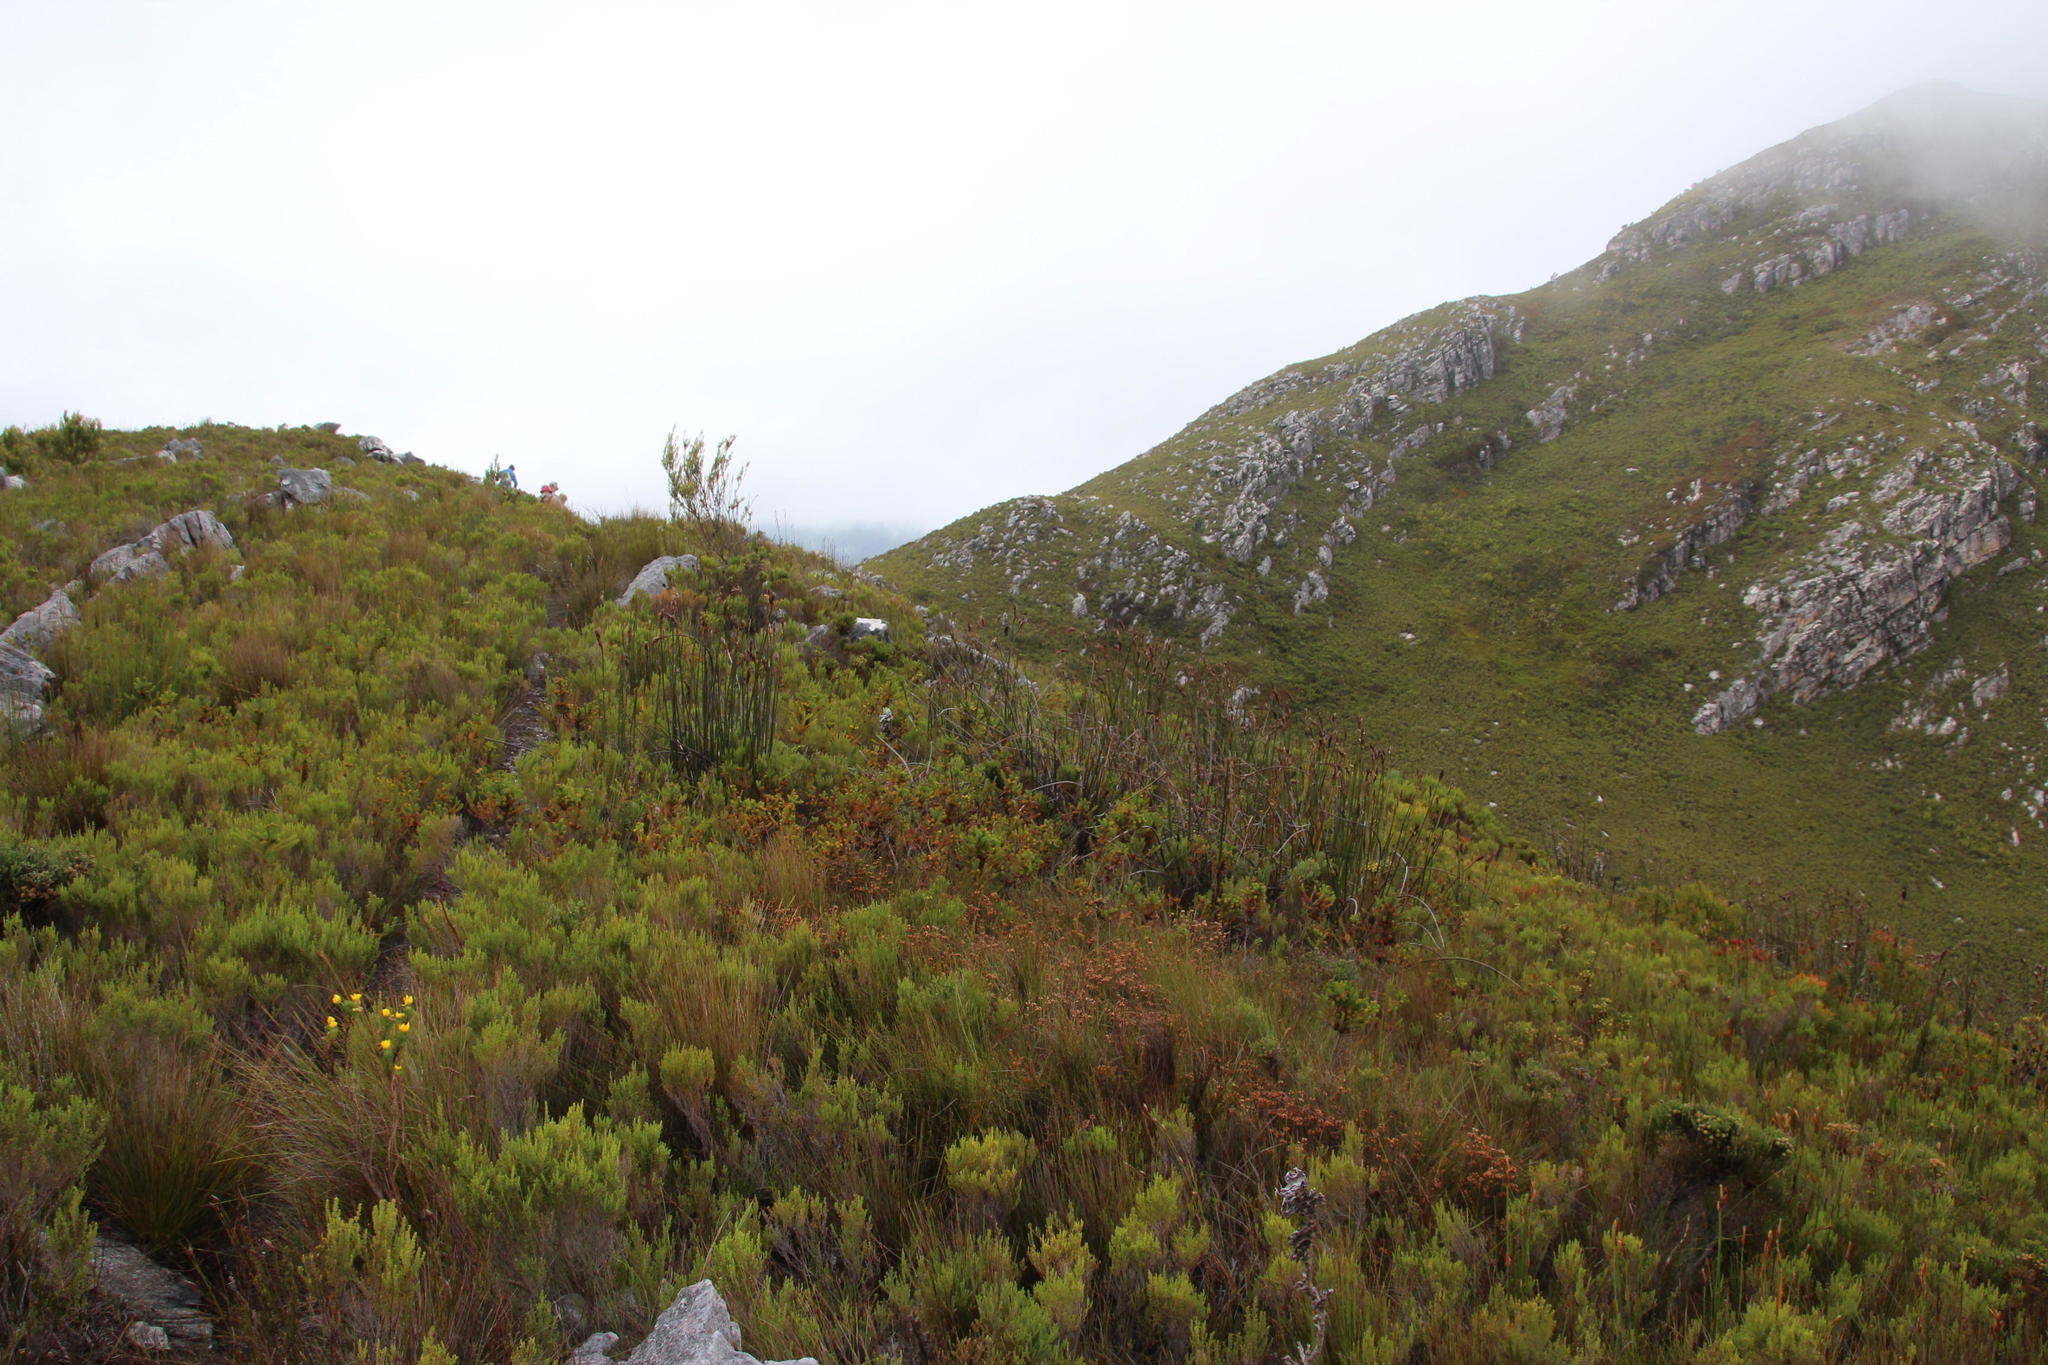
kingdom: Plantae
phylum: Tracheophyta
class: Liliopsida
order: Poales
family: Restionaceae
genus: Elegia
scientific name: Elegia mucronata
